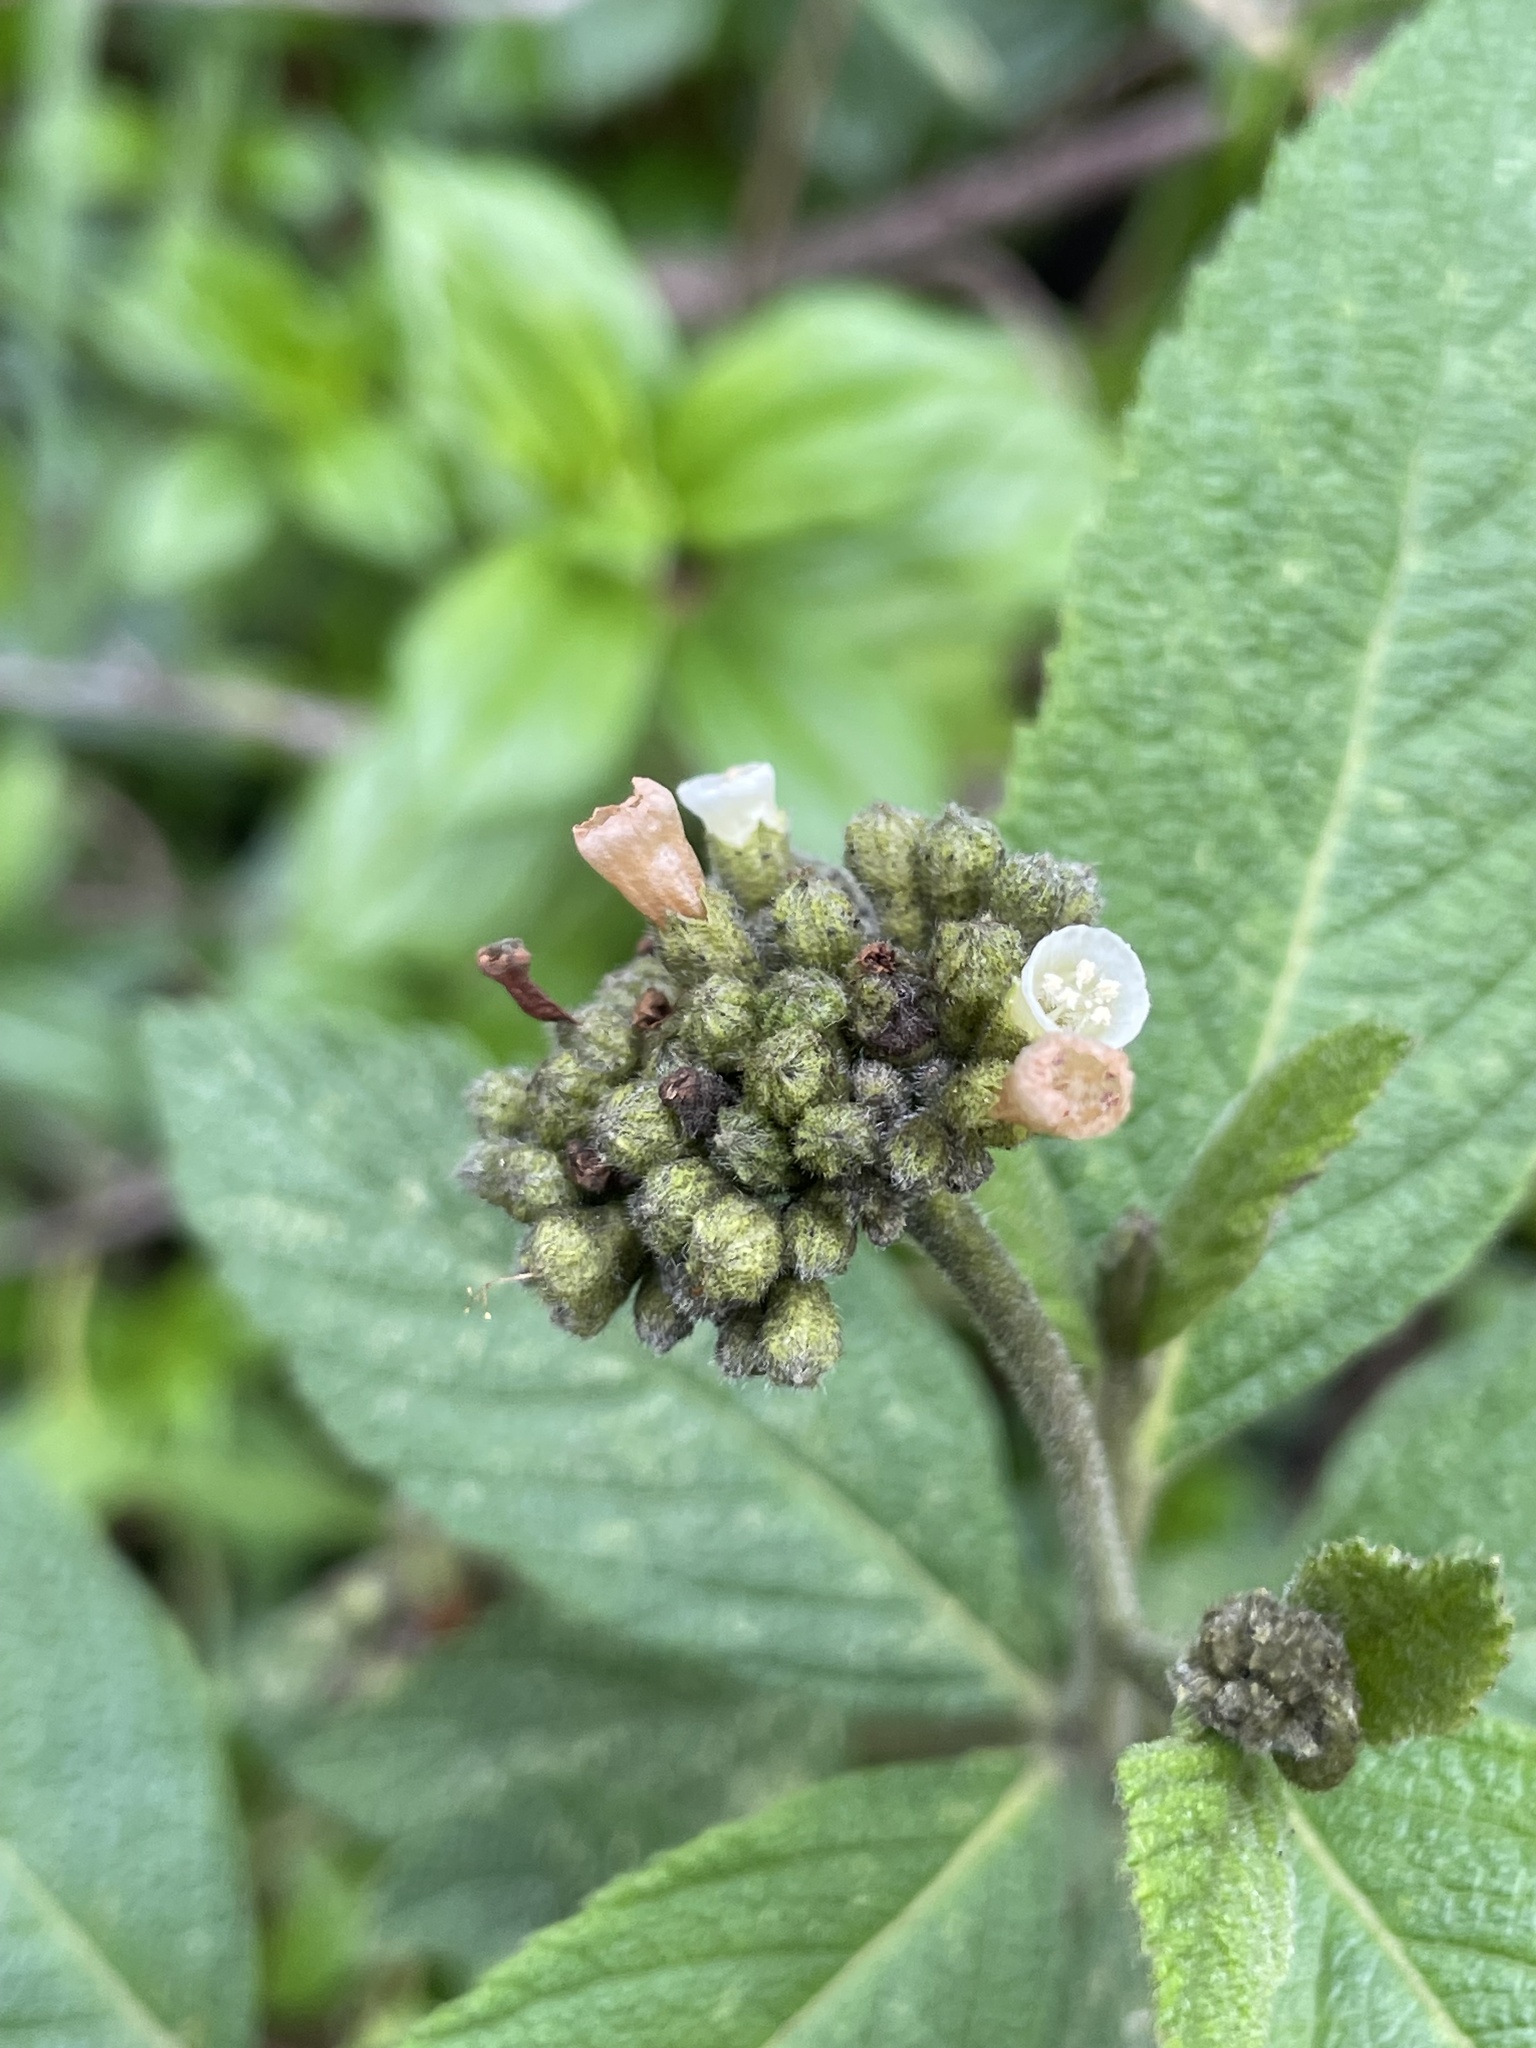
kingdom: Plantae
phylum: Tracheophyta
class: Magnoliopsida
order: Boraginales
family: Cordiaceae
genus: Varronia
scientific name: Varronia crenata
